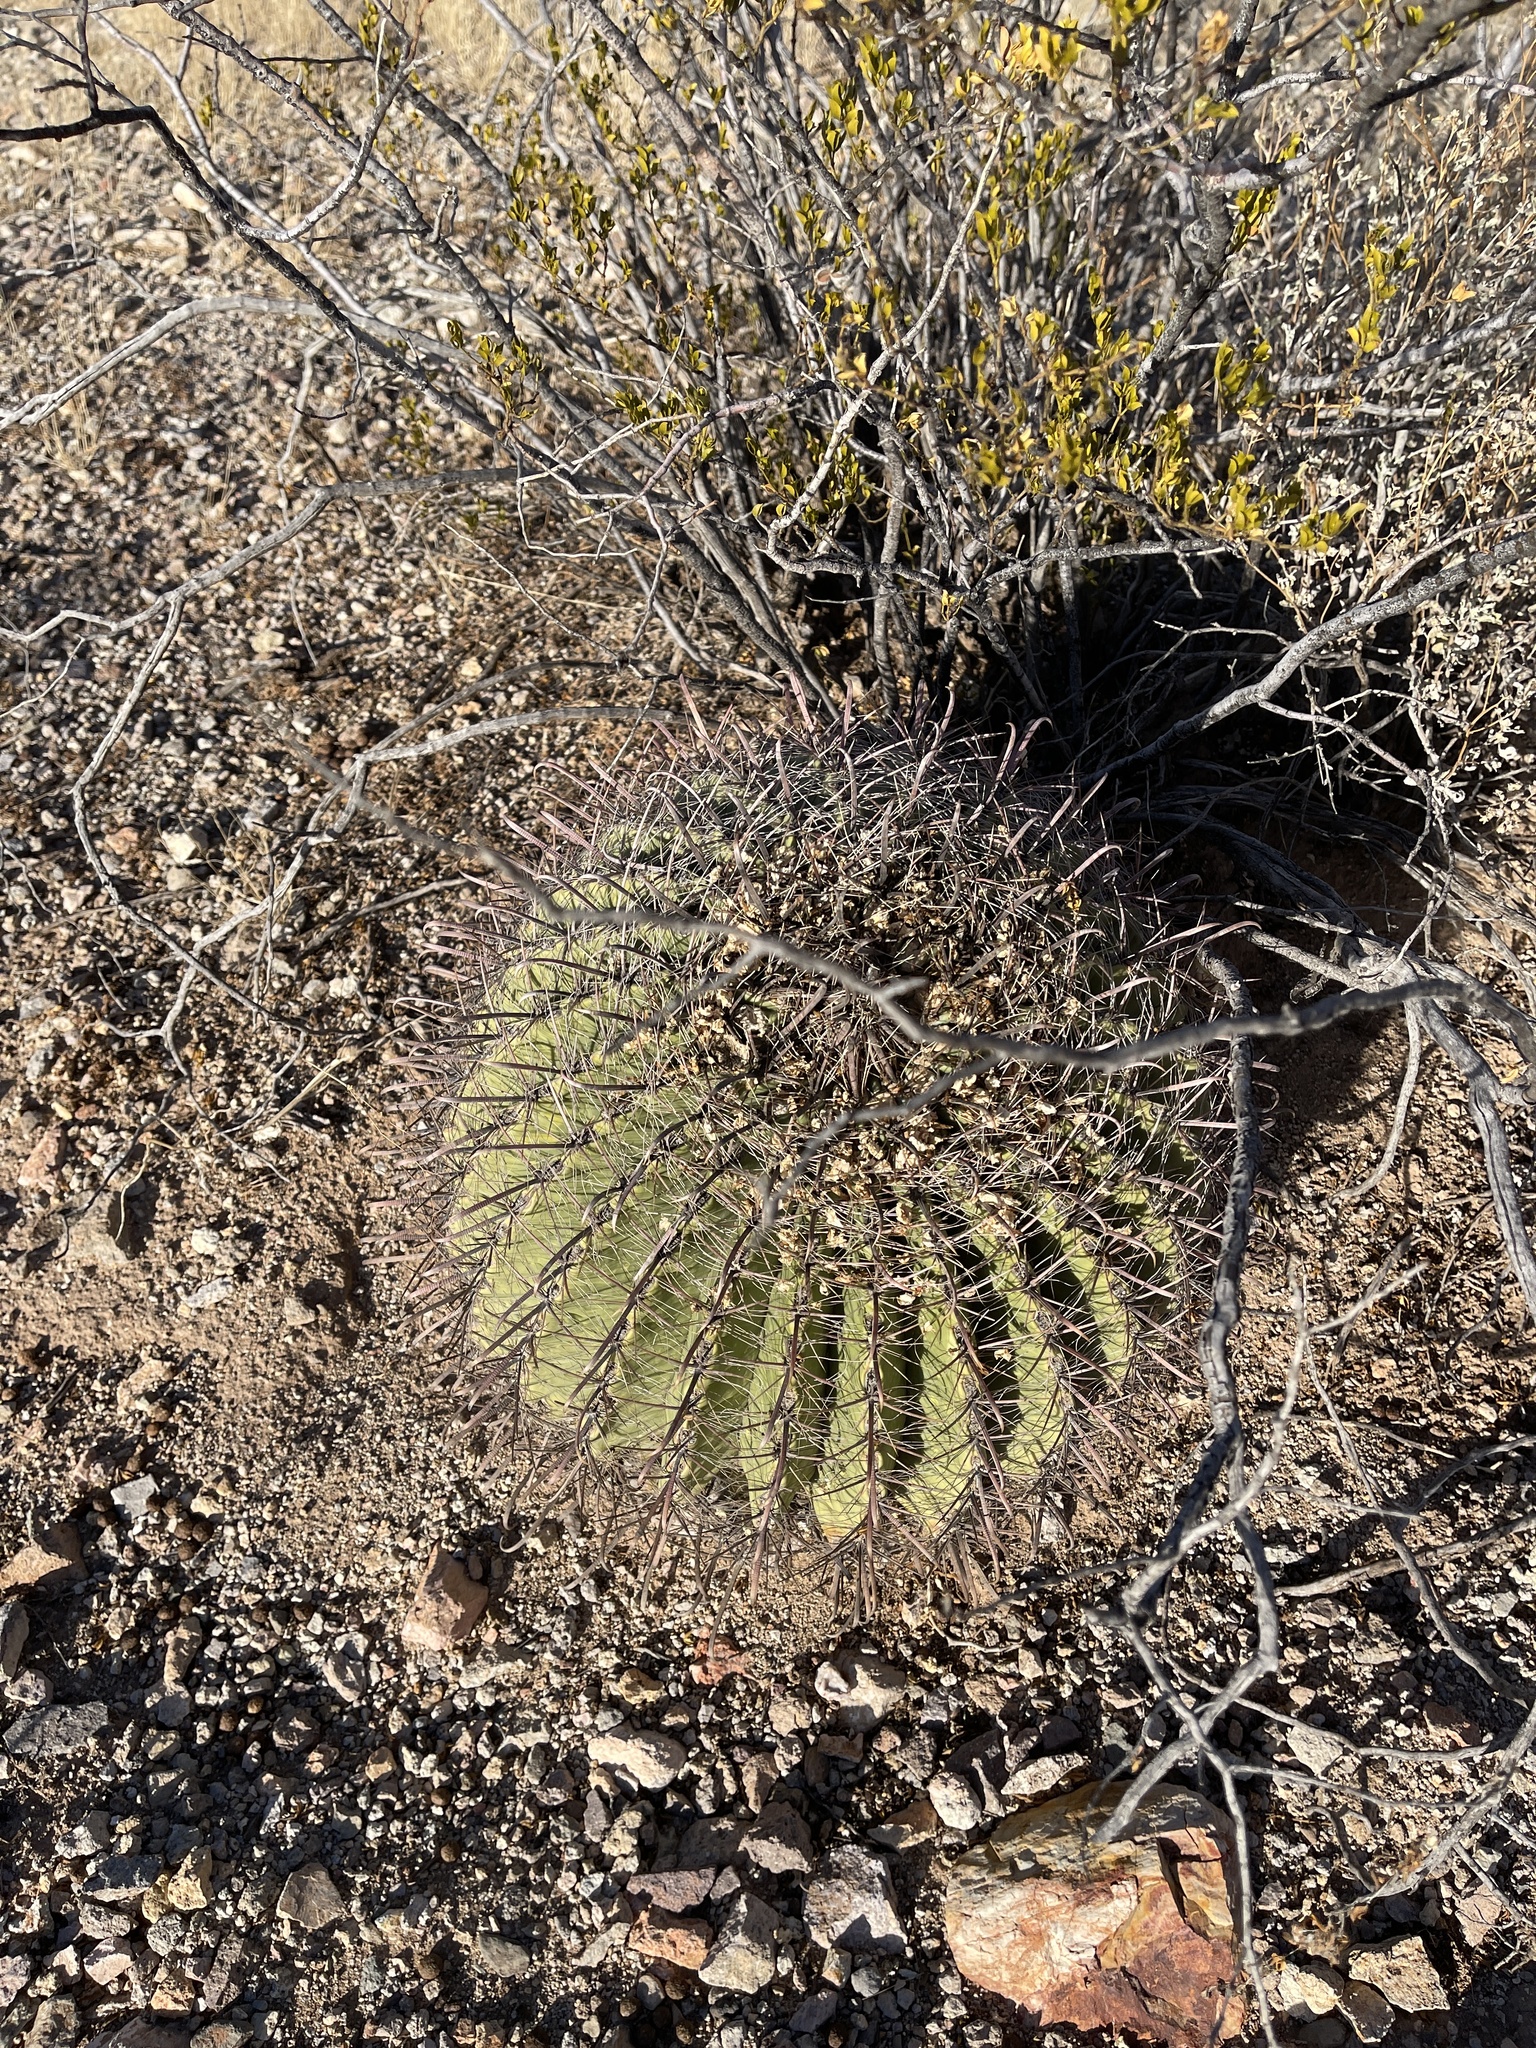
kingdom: Plantae
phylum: Tracheophyta
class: Magnoliopsida
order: Caryophyllales
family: Cactaceae
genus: Ferocactus
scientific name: Ferocactus wislizeni
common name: Candy barrel cactus
